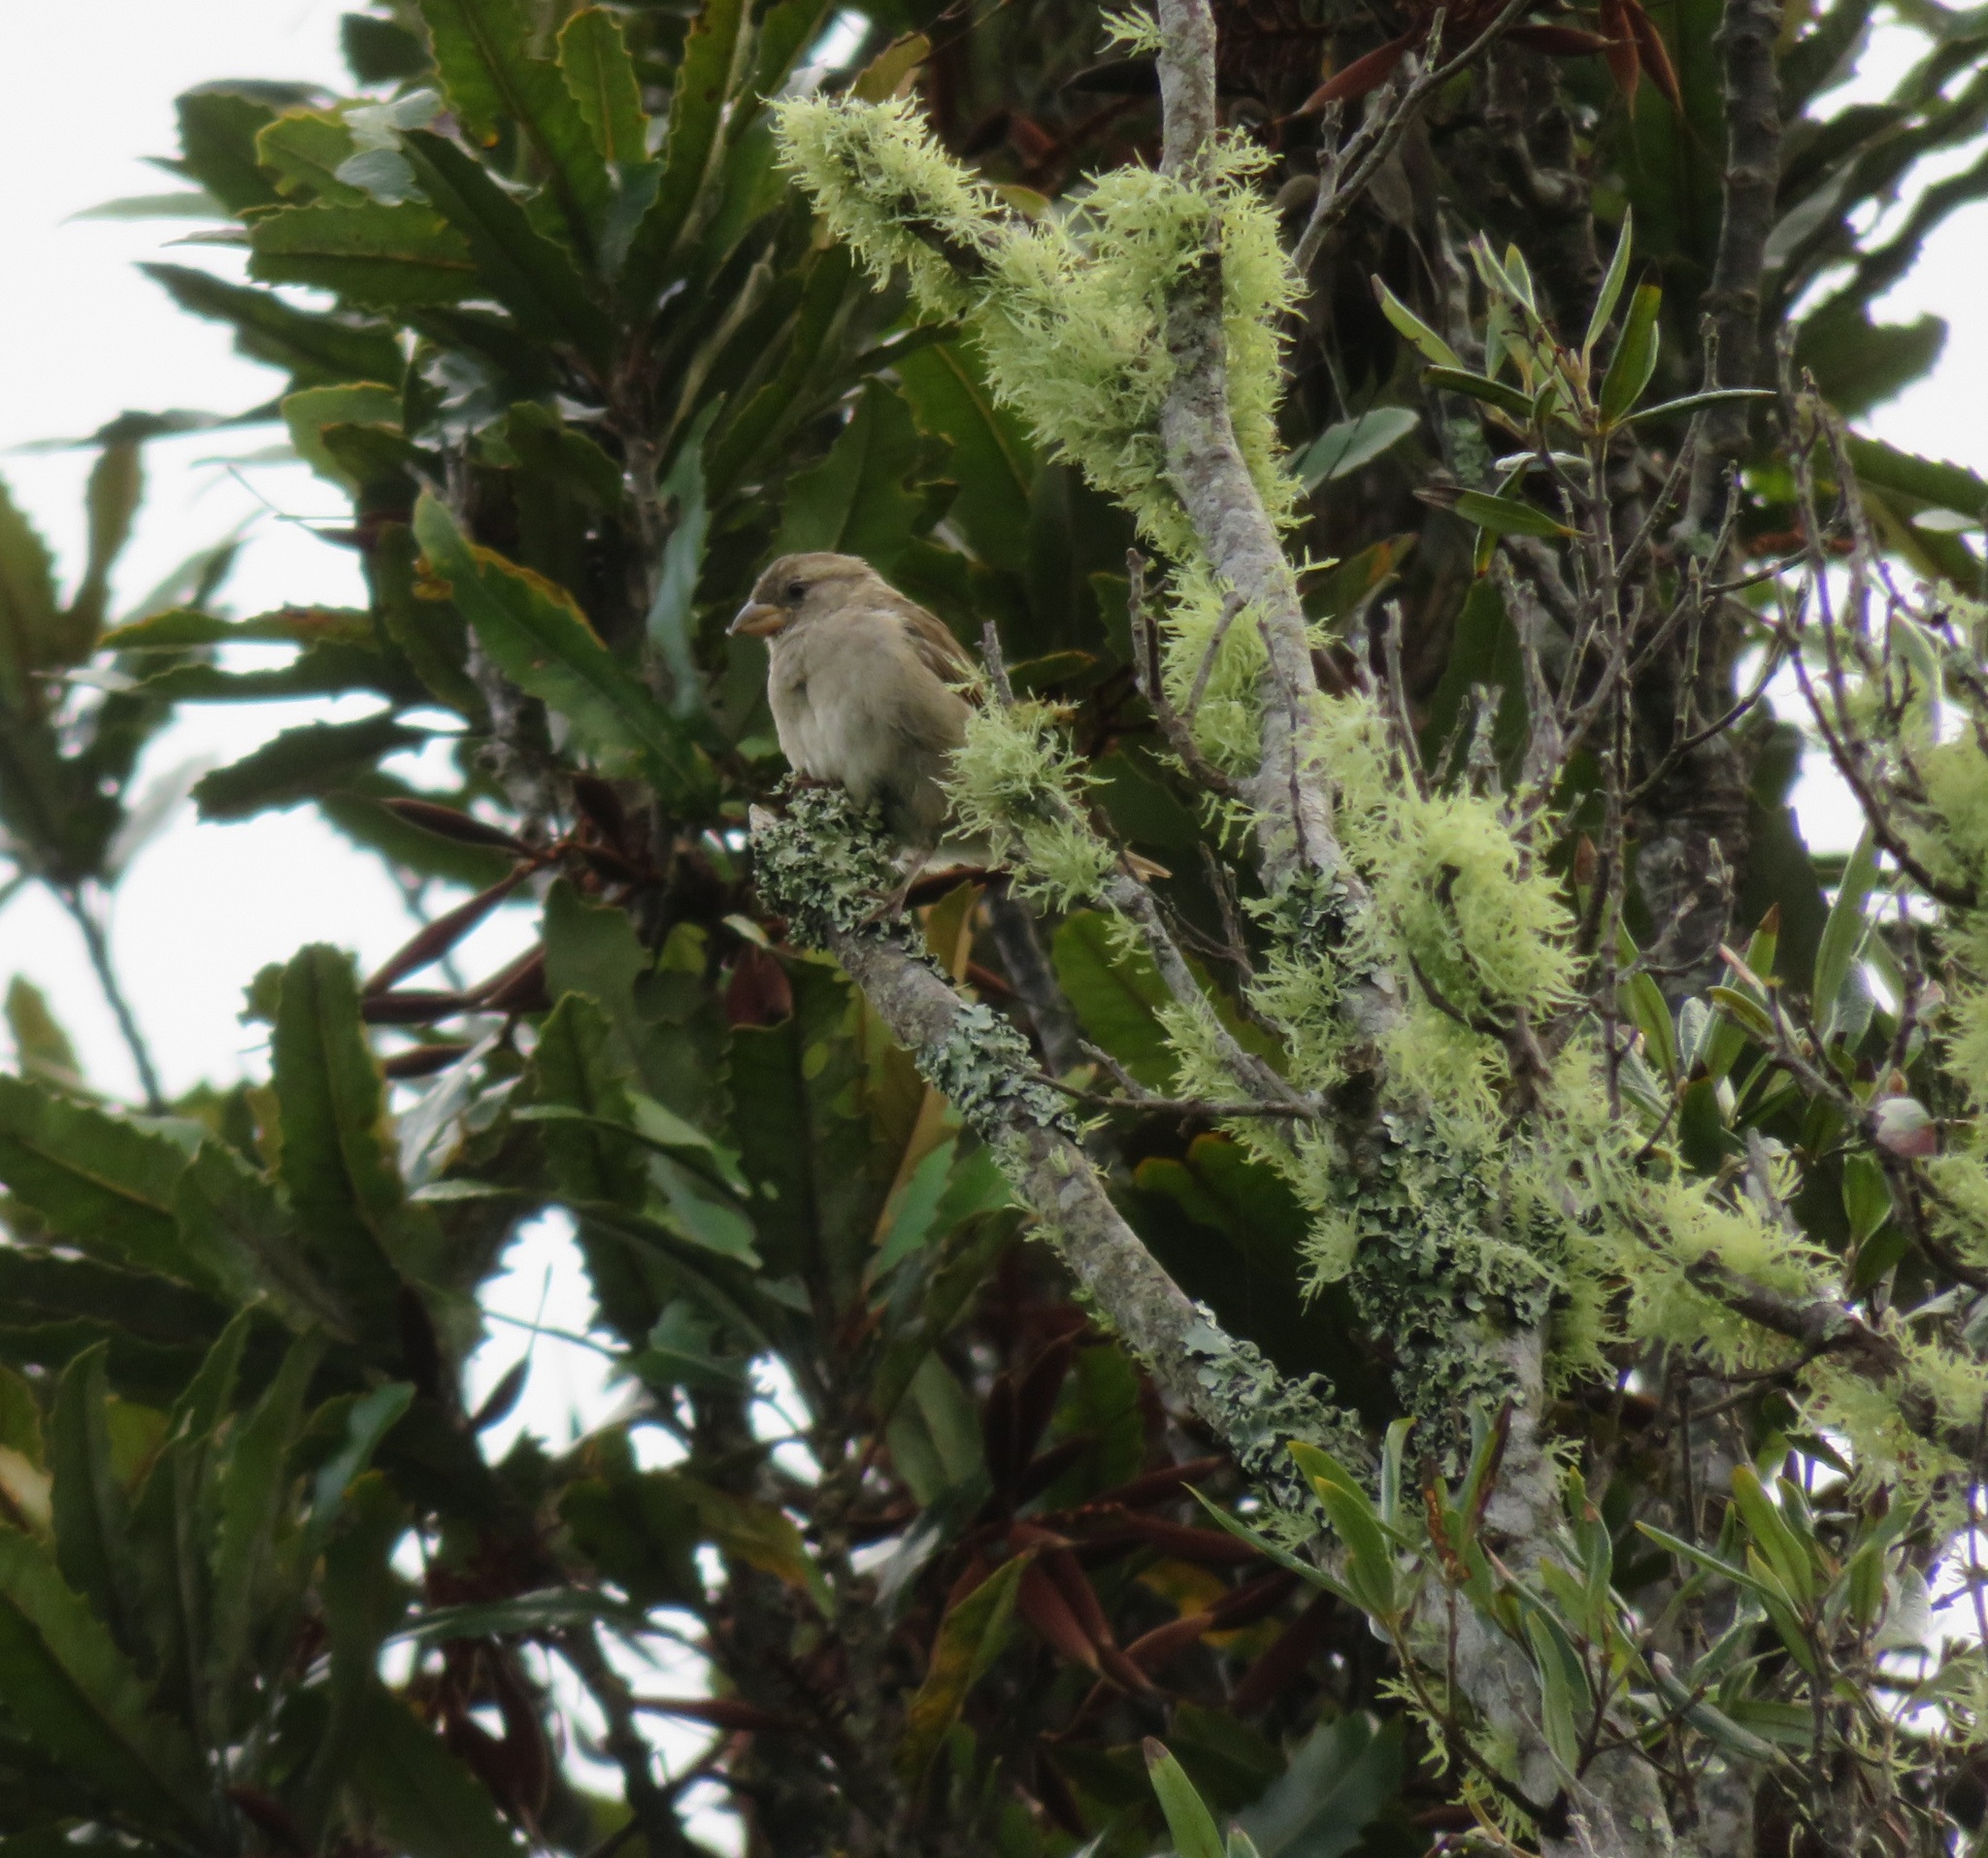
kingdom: Animalia
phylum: Chordata
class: Aves
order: Passeriformes
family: Passeridae
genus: Passer
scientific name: Passer domesticus
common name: House sparrow
